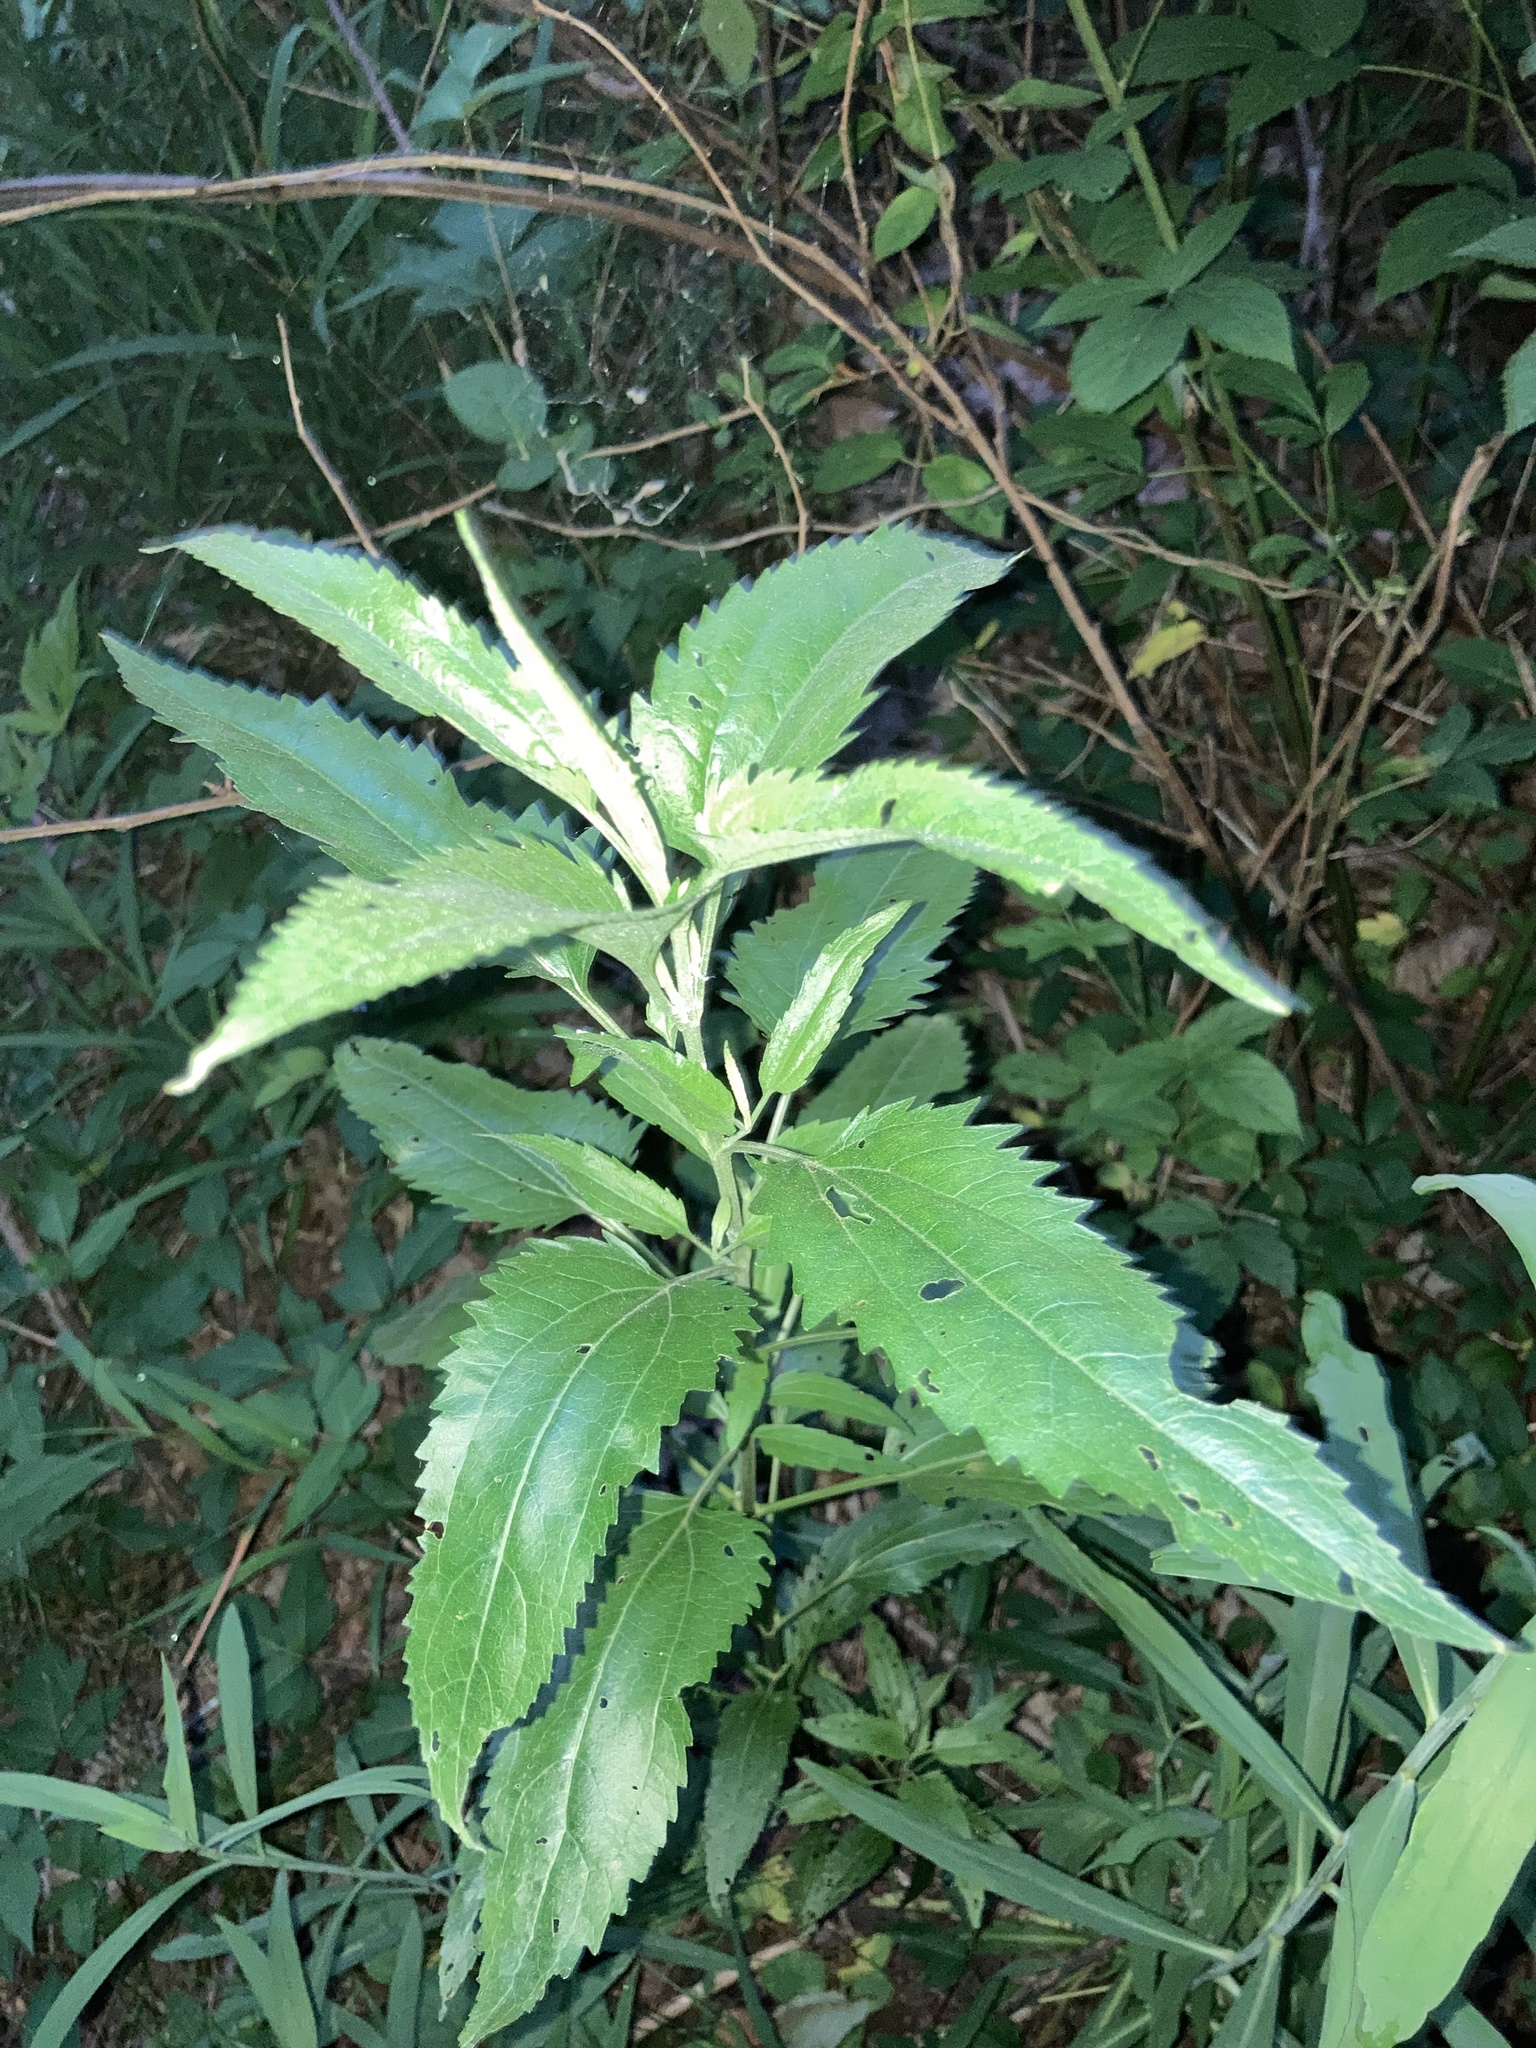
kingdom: Plantae
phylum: Tracheophyta
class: Magnoliopsida
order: Asterales
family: Asteraceae
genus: Eupatorium
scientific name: Eupatorium serotinum
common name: Late boneset
